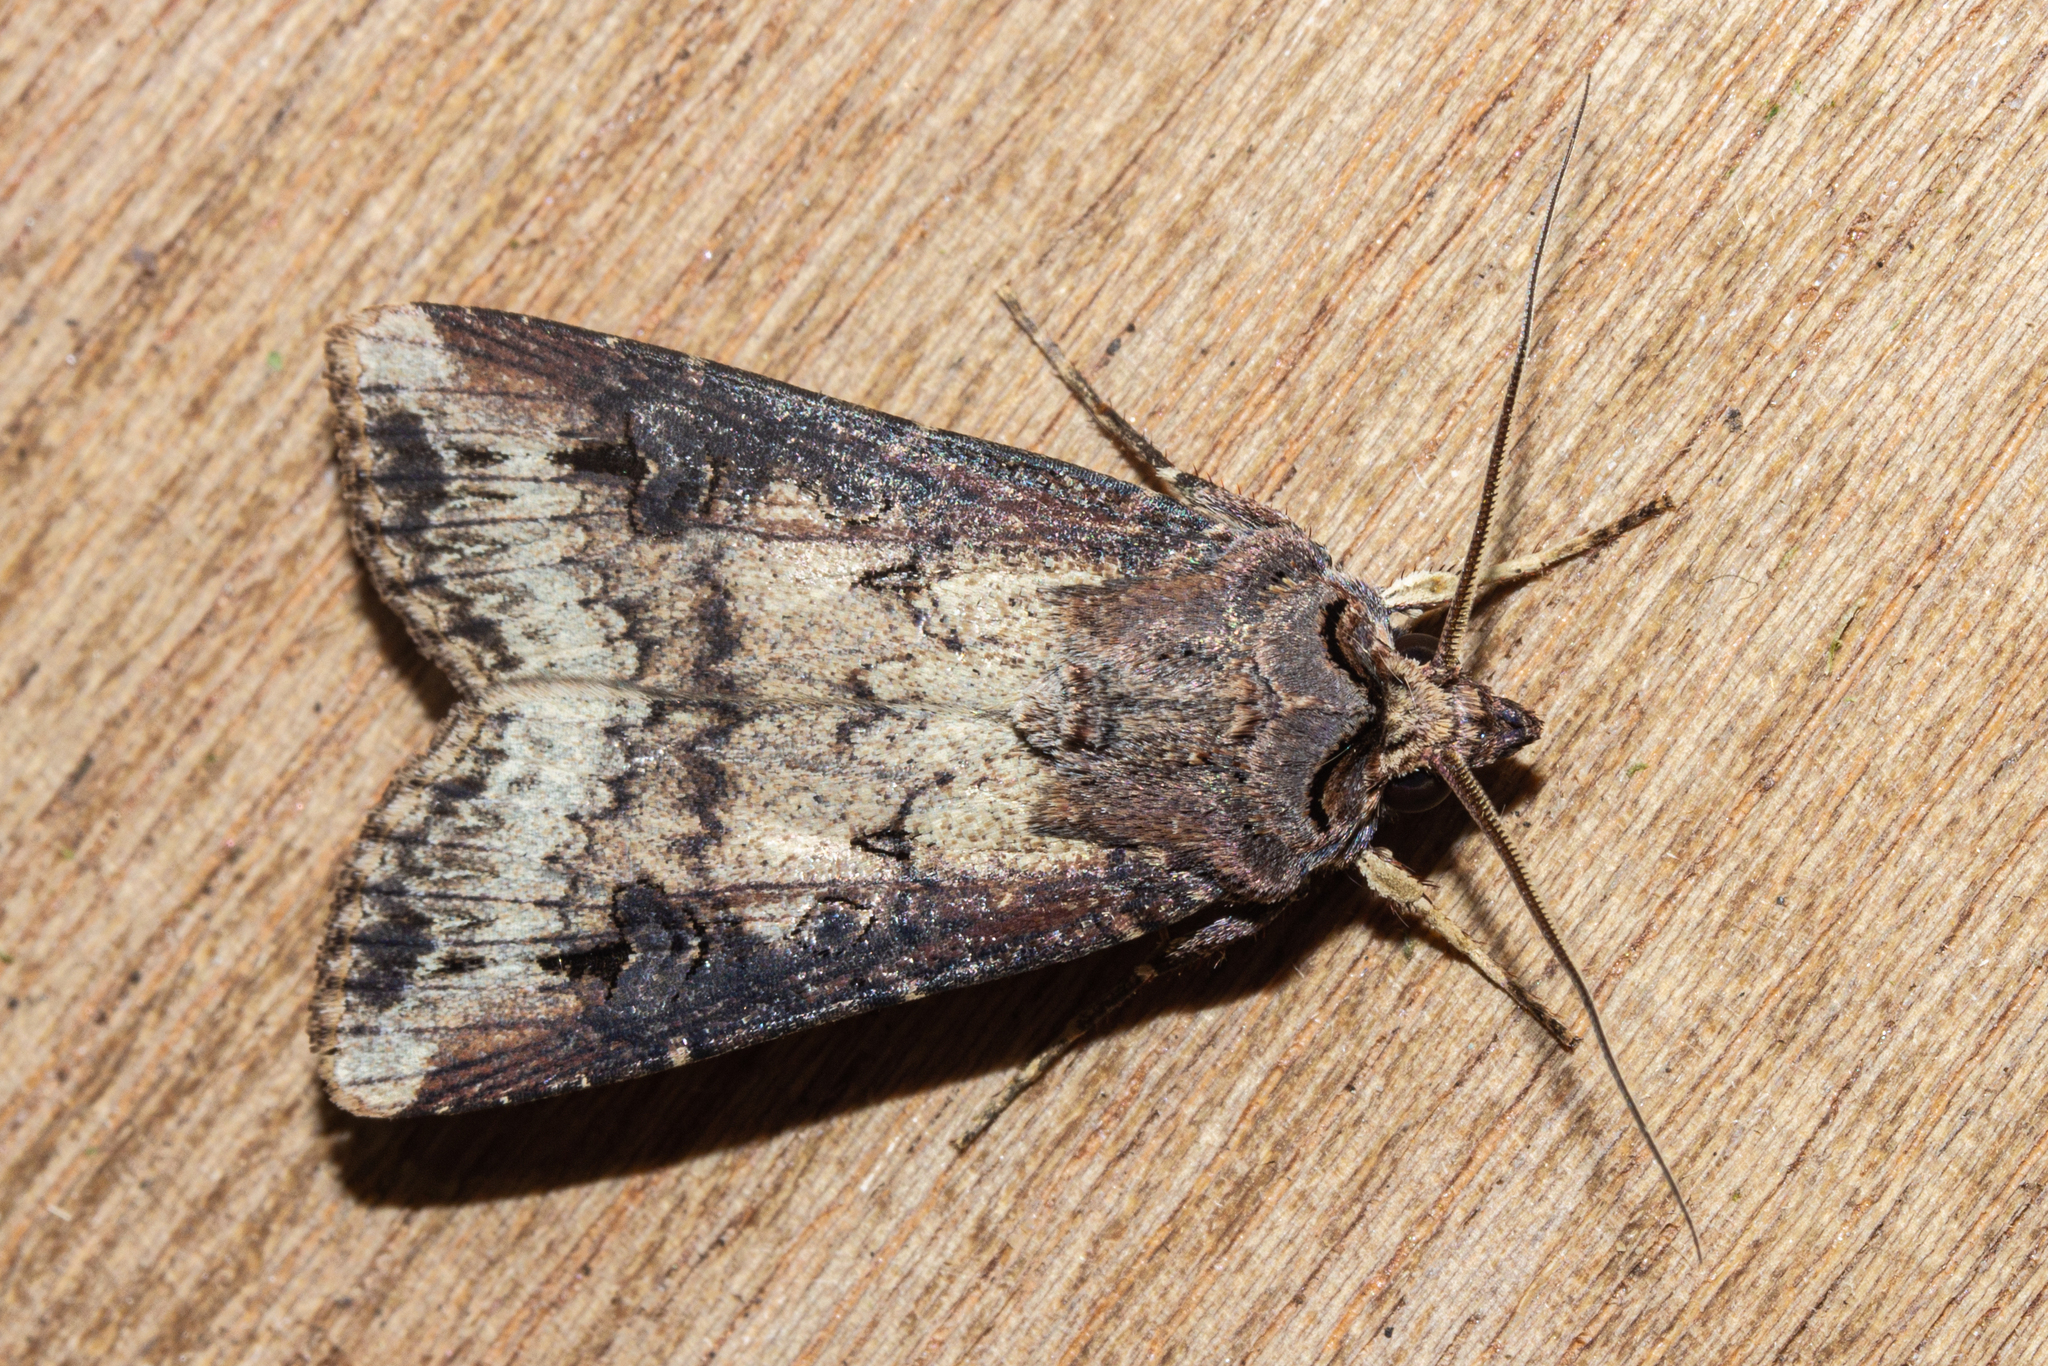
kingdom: Animalia
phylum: Arthropoda
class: Insecta
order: Lepidoptera
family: Noctuidae
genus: Agrotis
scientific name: Agrotis ipsilon
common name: Dark sword-grass
